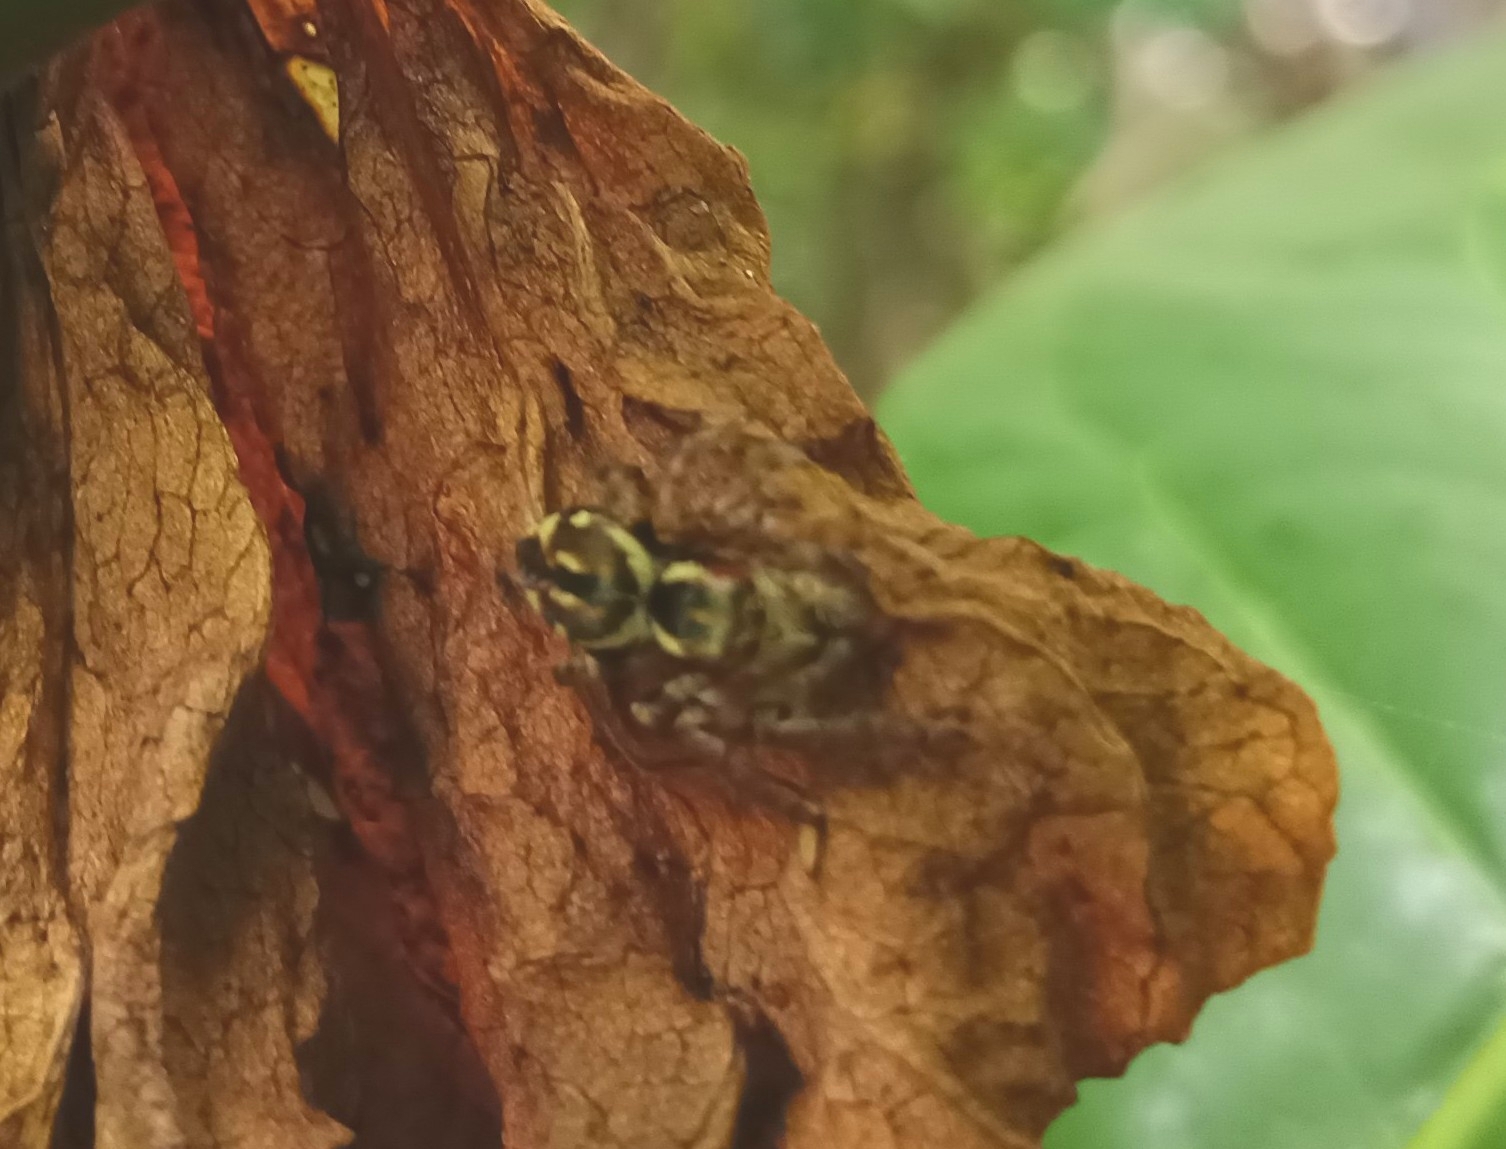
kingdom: Animalia
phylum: Arthropoda
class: Arachnida
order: Araneae
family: Salticidae
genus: Carrhotus
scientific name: Carrhotus viduus
